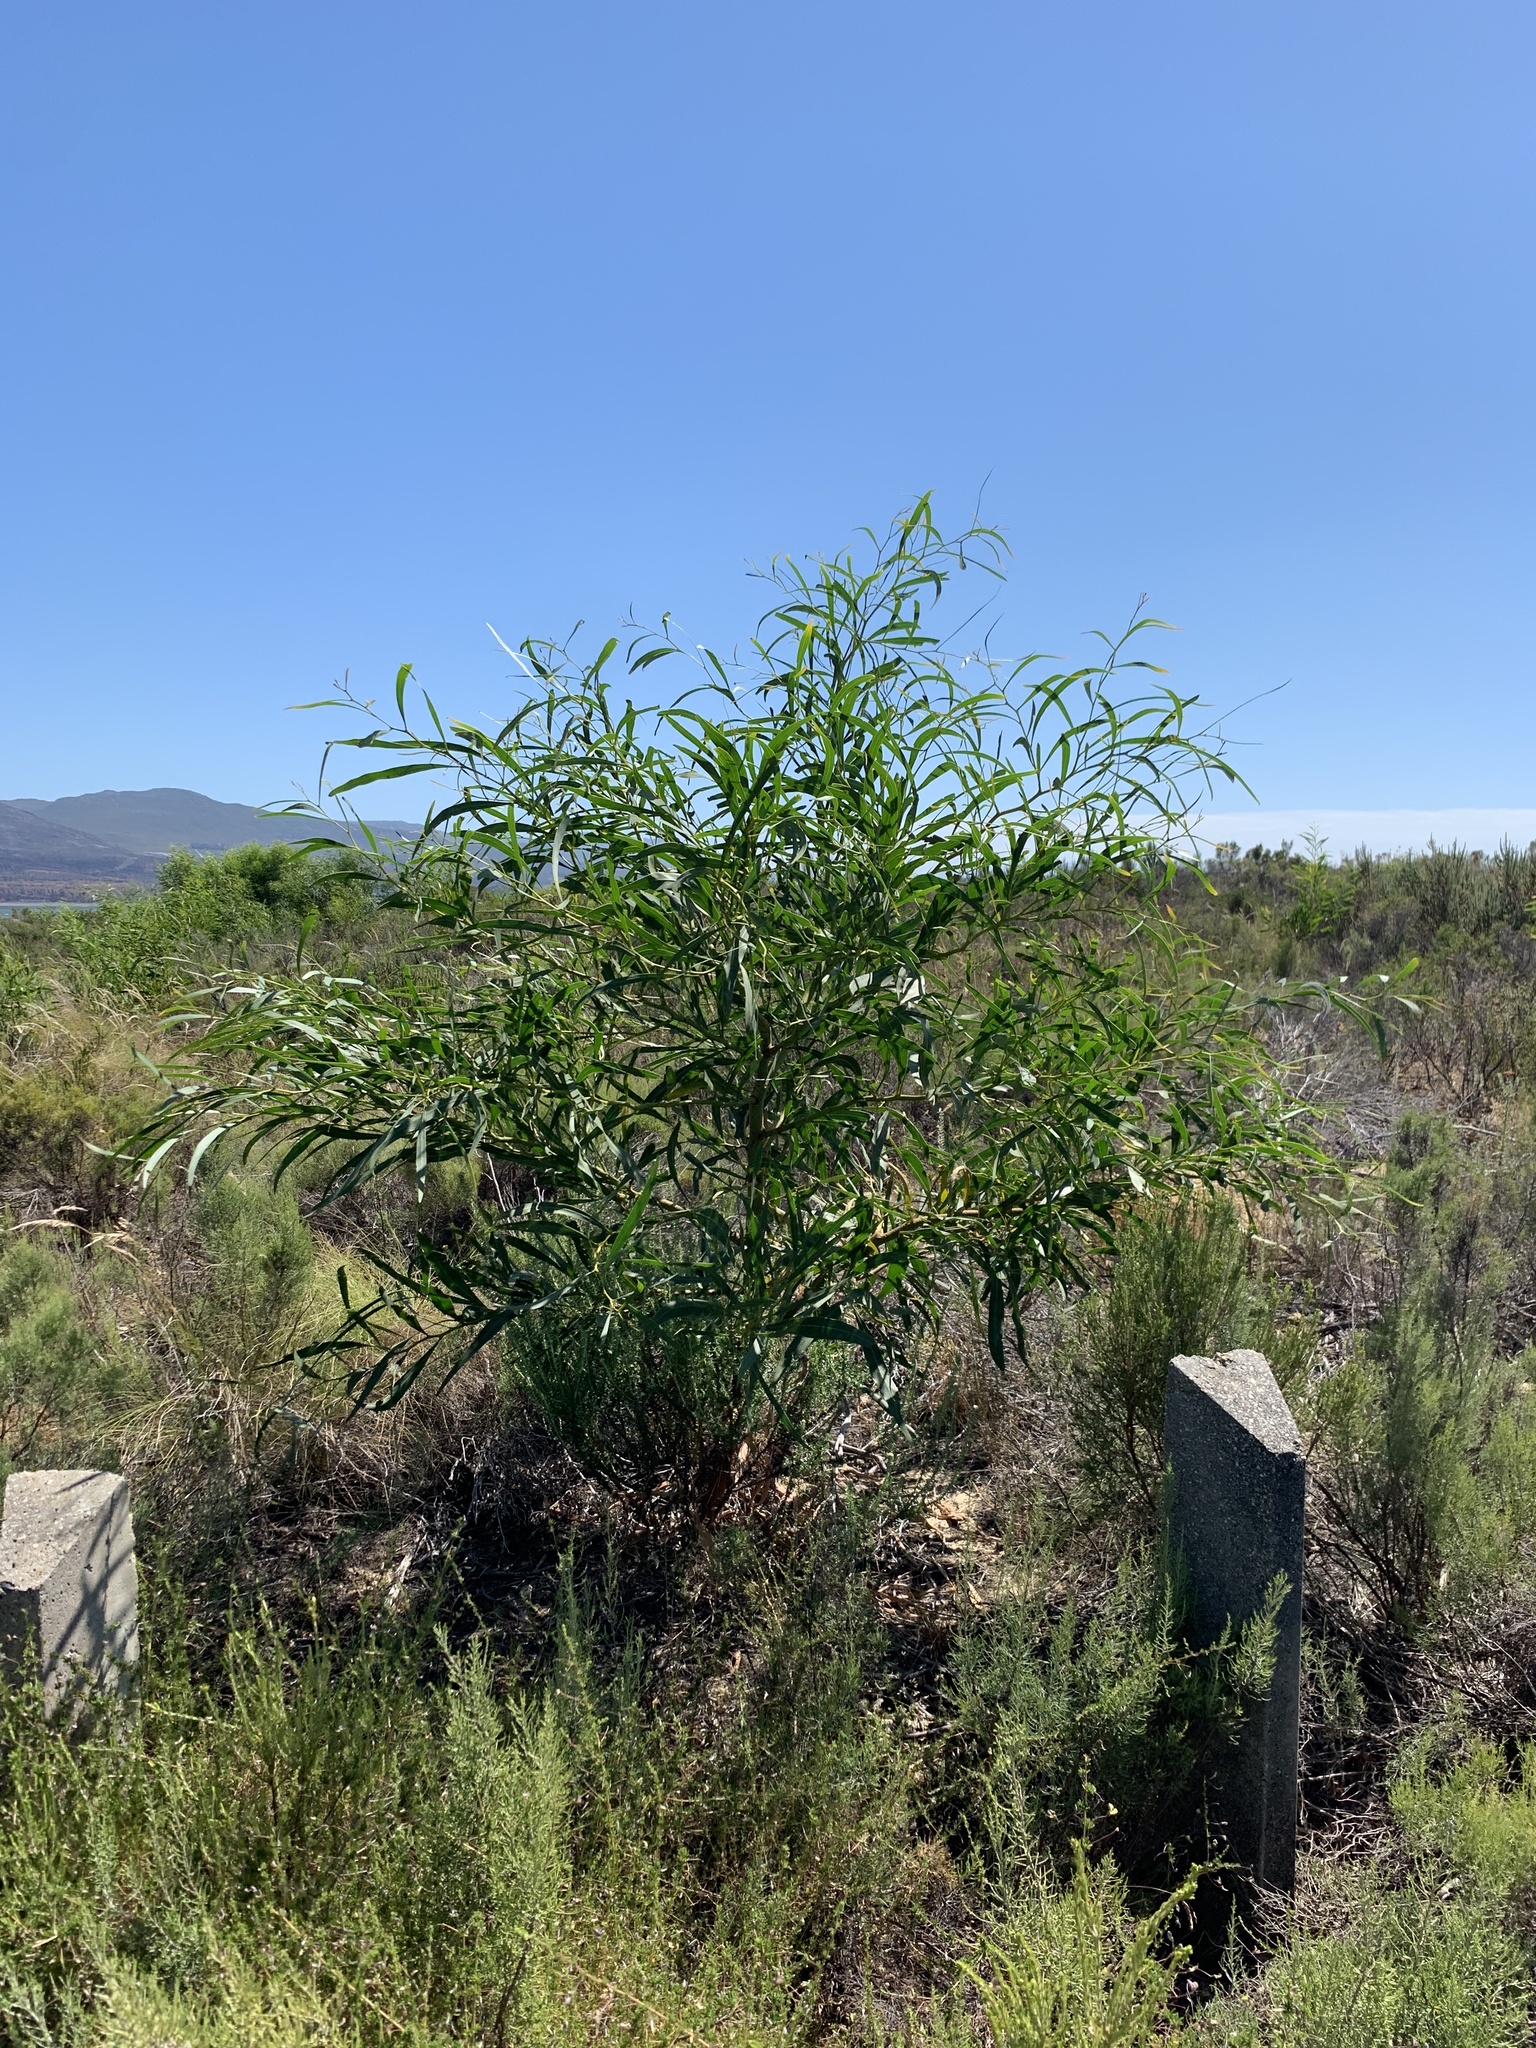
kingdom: Plantae
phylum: Tracheophyta
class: Magnoliopsida
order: Fabales
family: Fabaceae
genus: Acacia
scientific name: Acacia saligna
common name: Orange wattle
